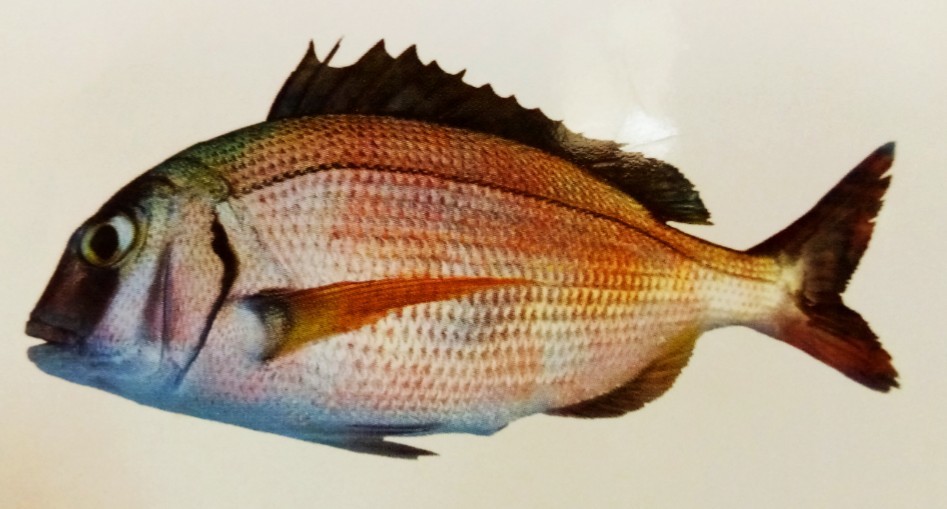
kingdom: Animalia
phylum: Chordata
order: Perciformes
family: Sparidae
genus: Pagrus
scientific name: Pagrus pagrus
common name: Red porgy
